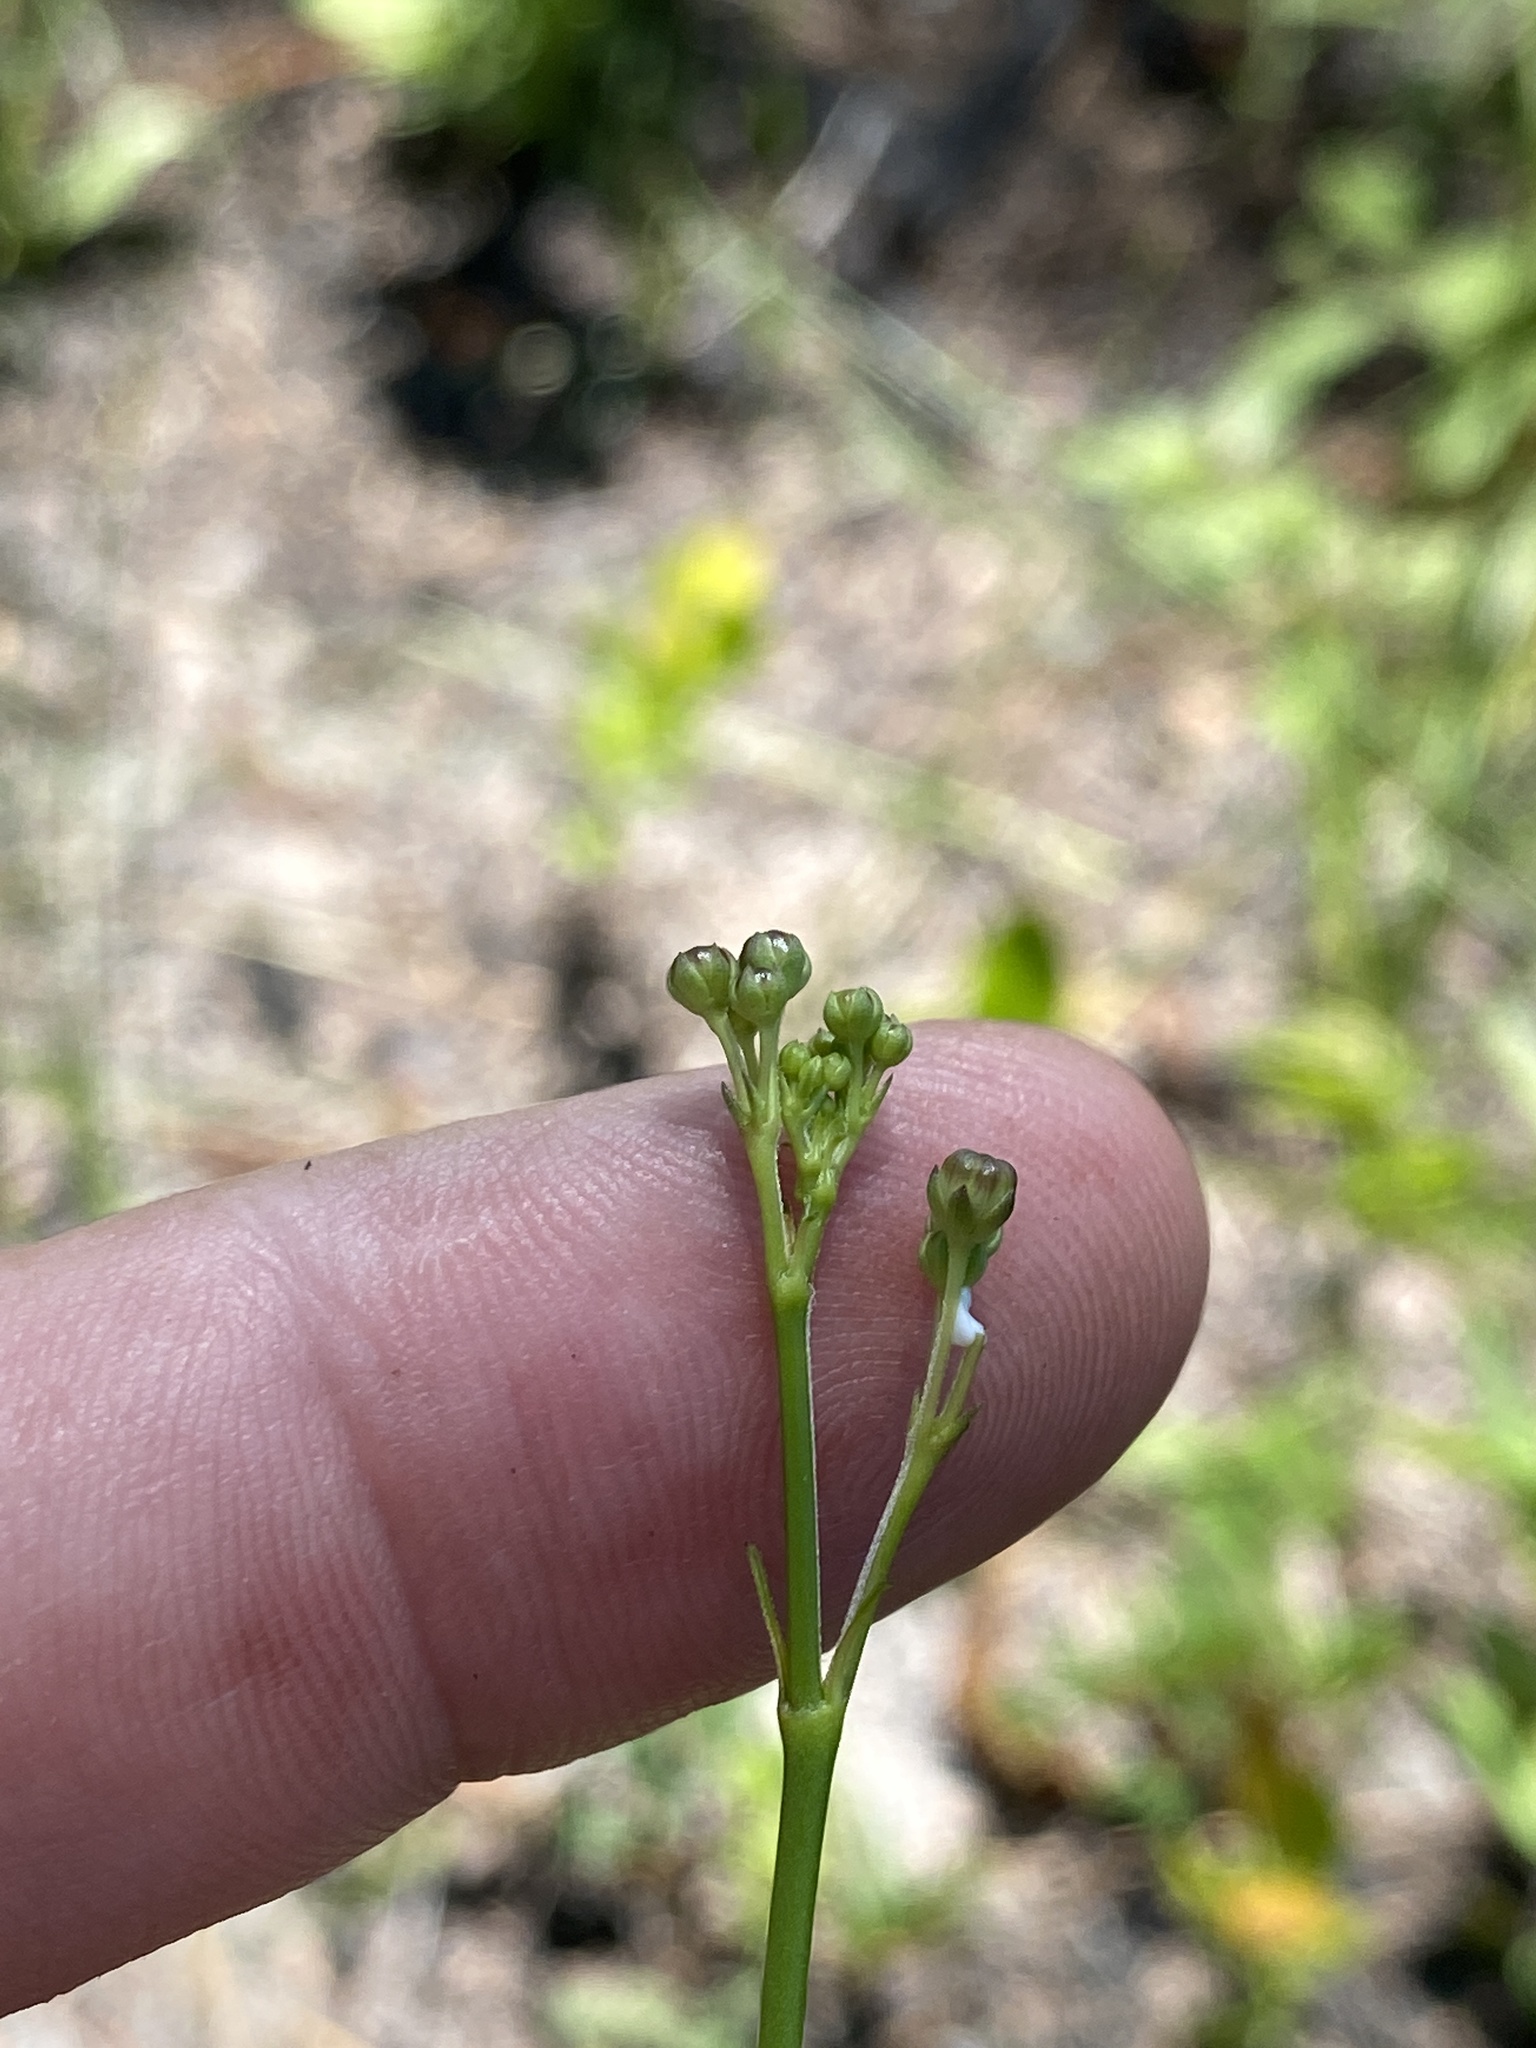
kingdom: Plantae
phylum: Tracheophyta
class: Magnoliopsida
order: Gentianales
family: Apocynaceae
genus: Asclepias
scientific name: Asclepias cinerea
